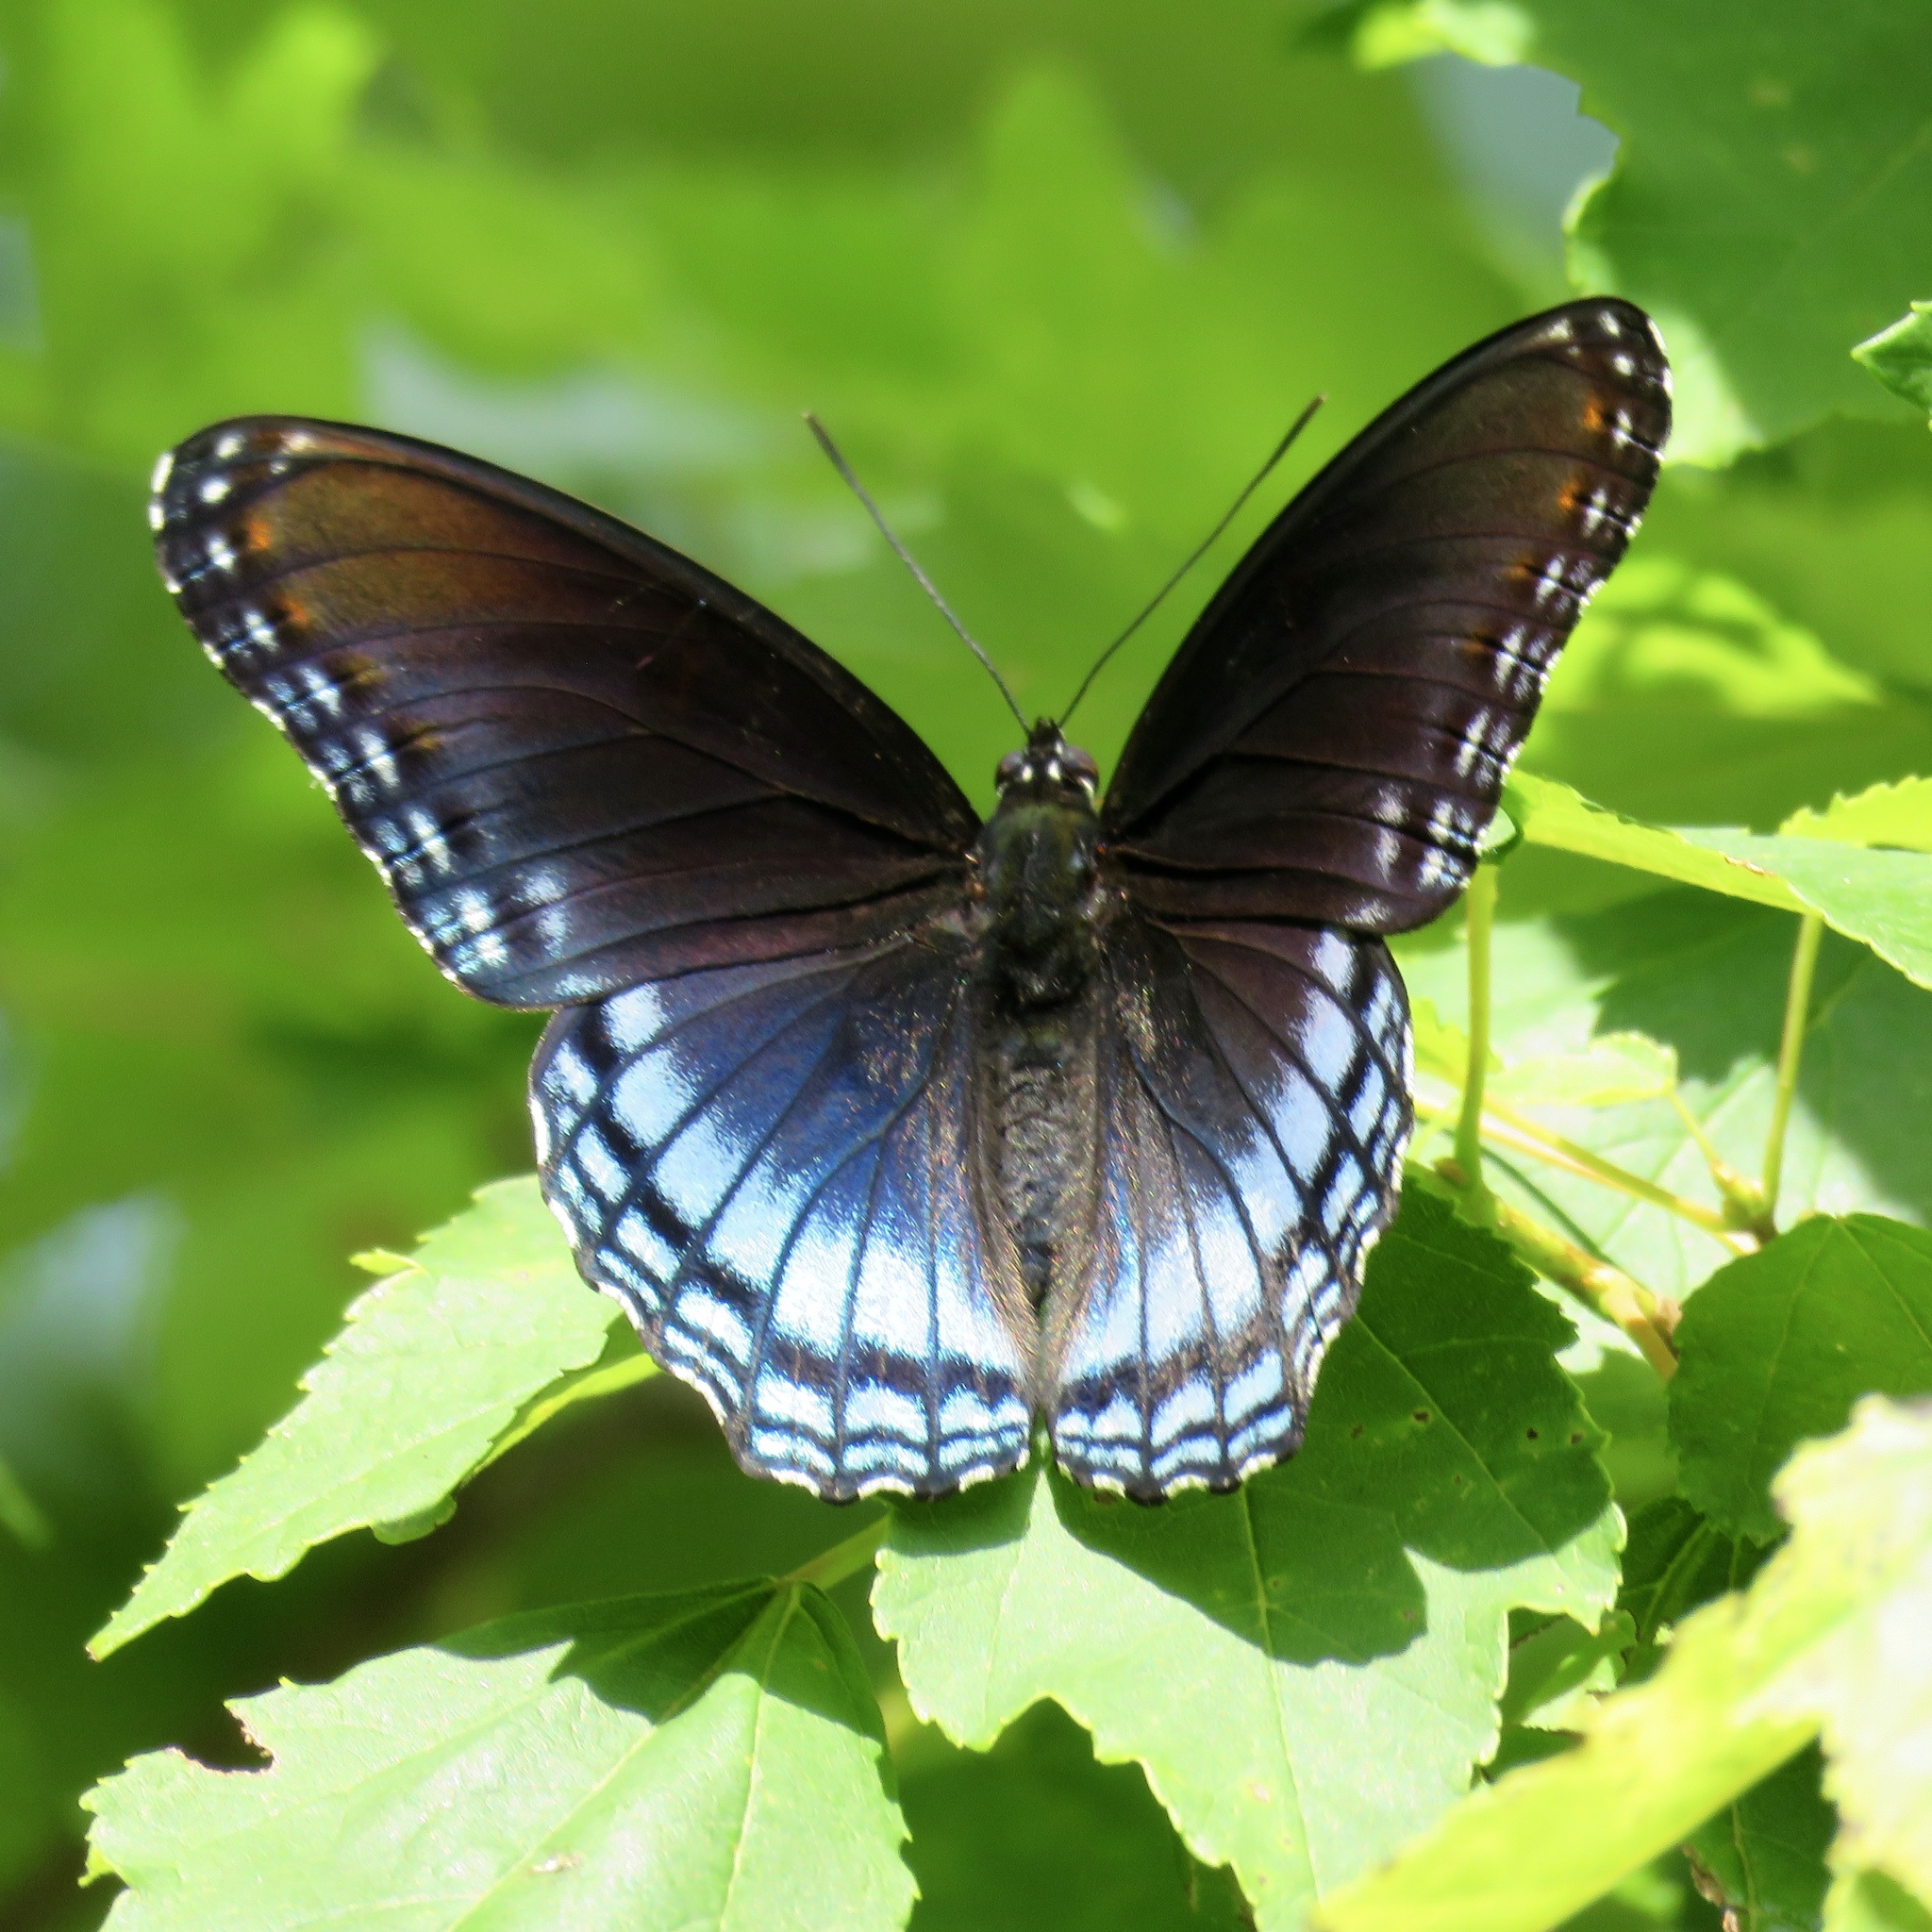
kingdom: Animalia
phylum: Arthropoda
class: Insecta
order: Lepidoptera
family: Nymphalidae
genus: Limenitis
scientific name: Limenitis arthemis
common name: Red-spotted admiral
